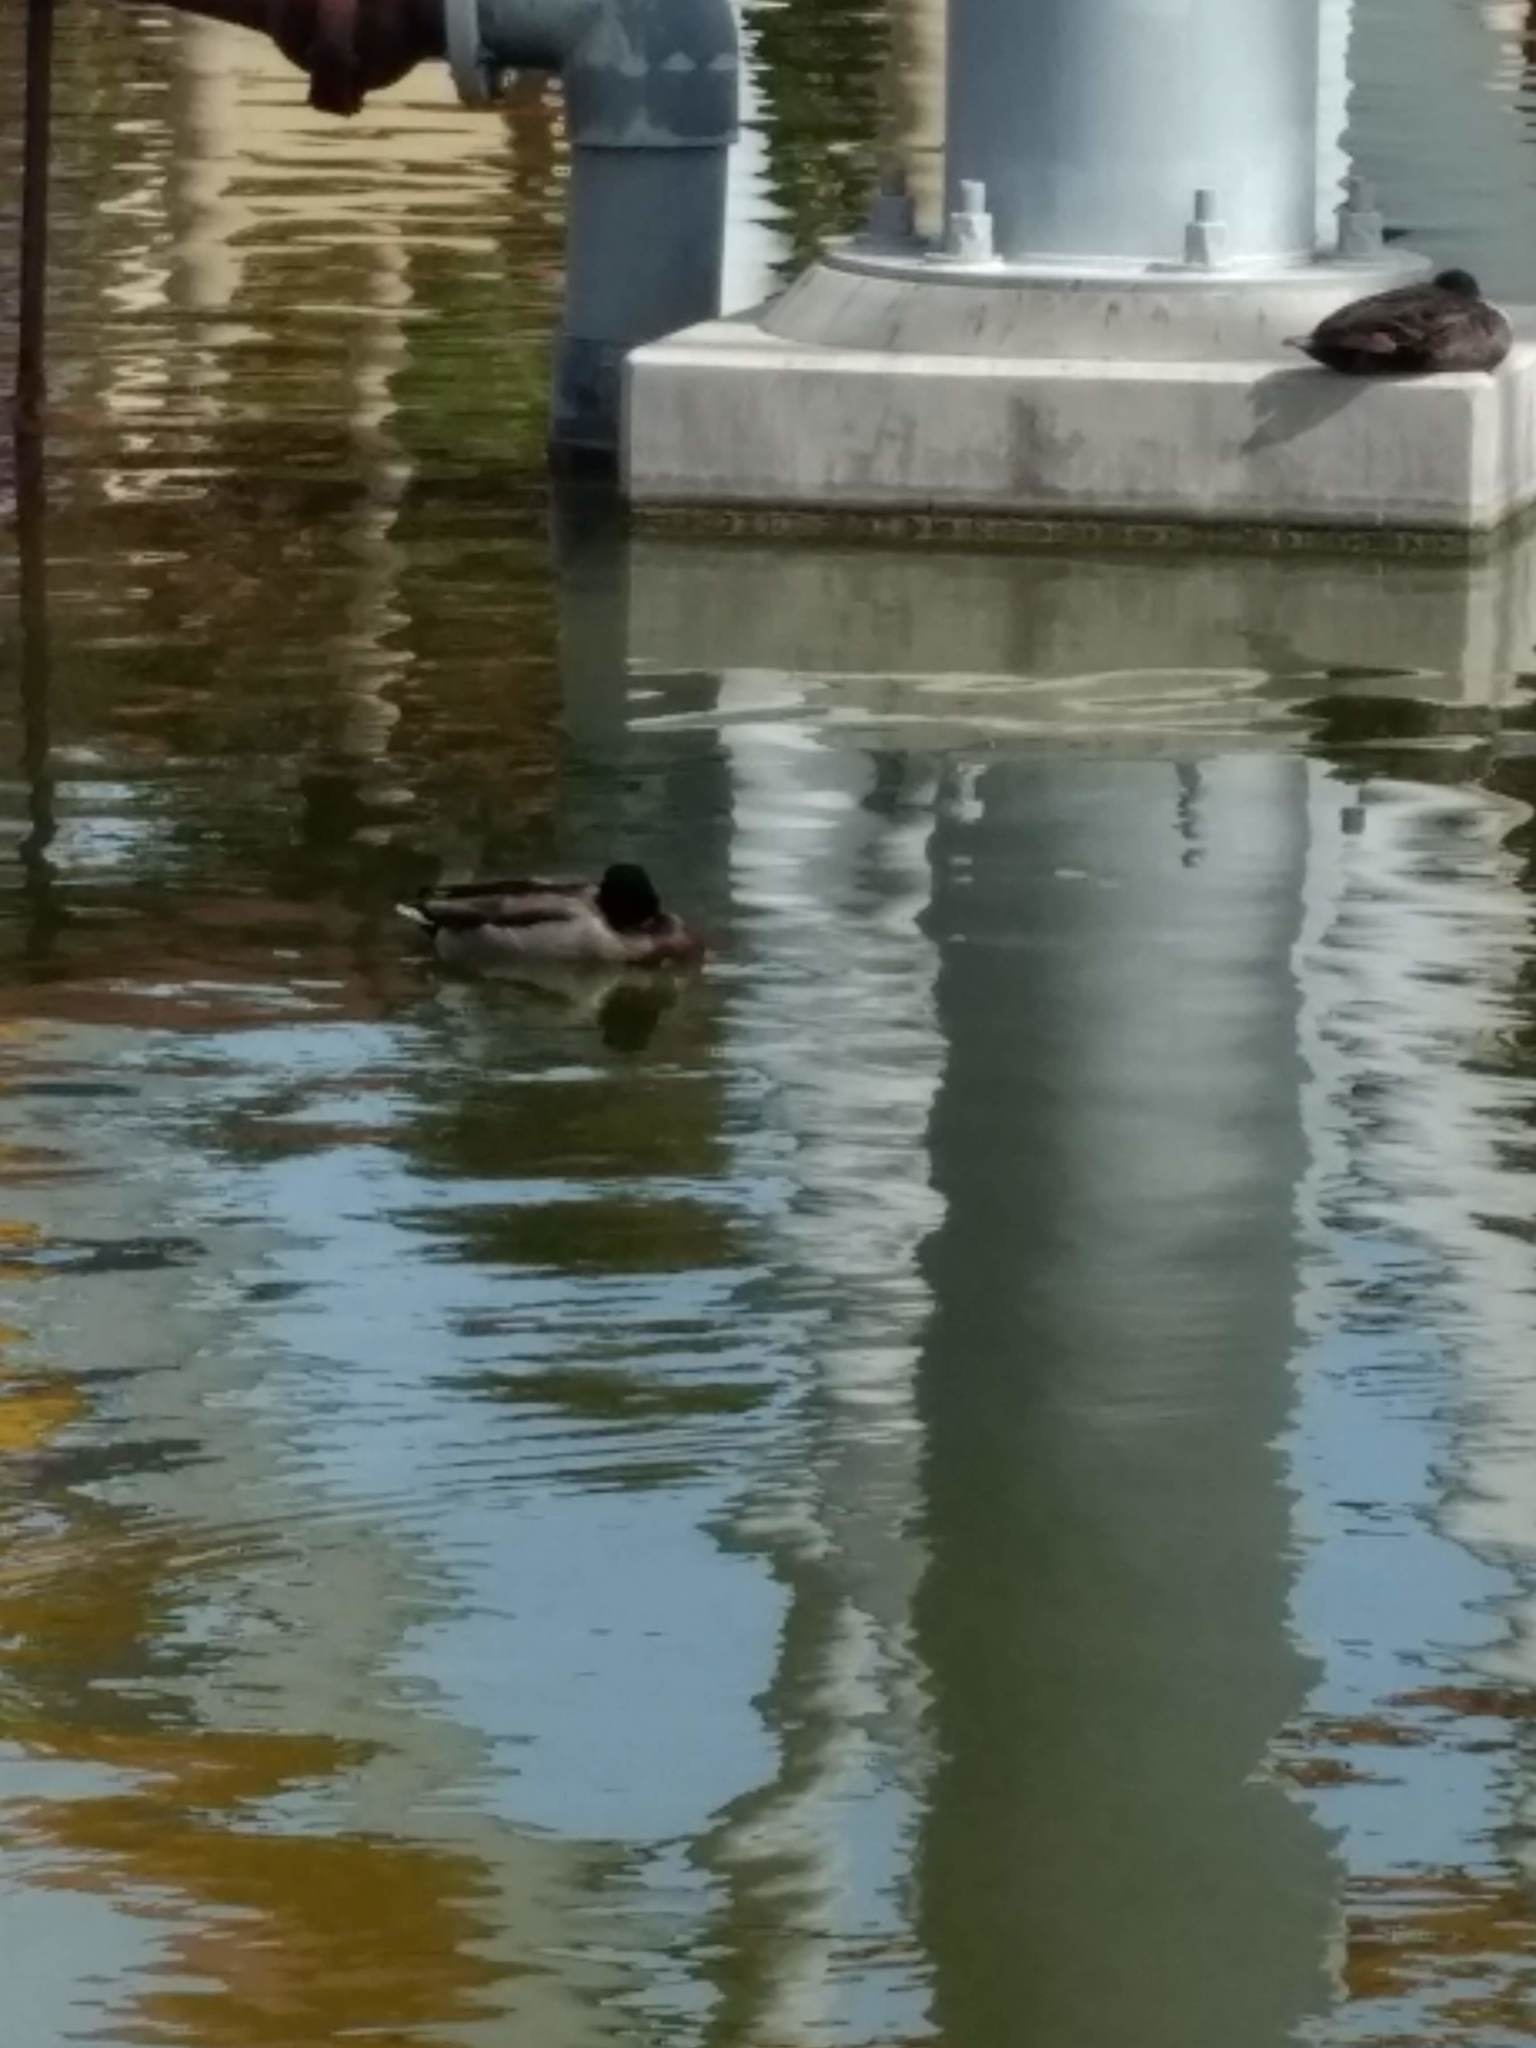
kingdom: Animalia
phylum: Chordata
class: Aves
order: Anseriformes
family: Anatidae
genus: Anas
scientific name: Anas platyrhynchos
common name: Mallard
